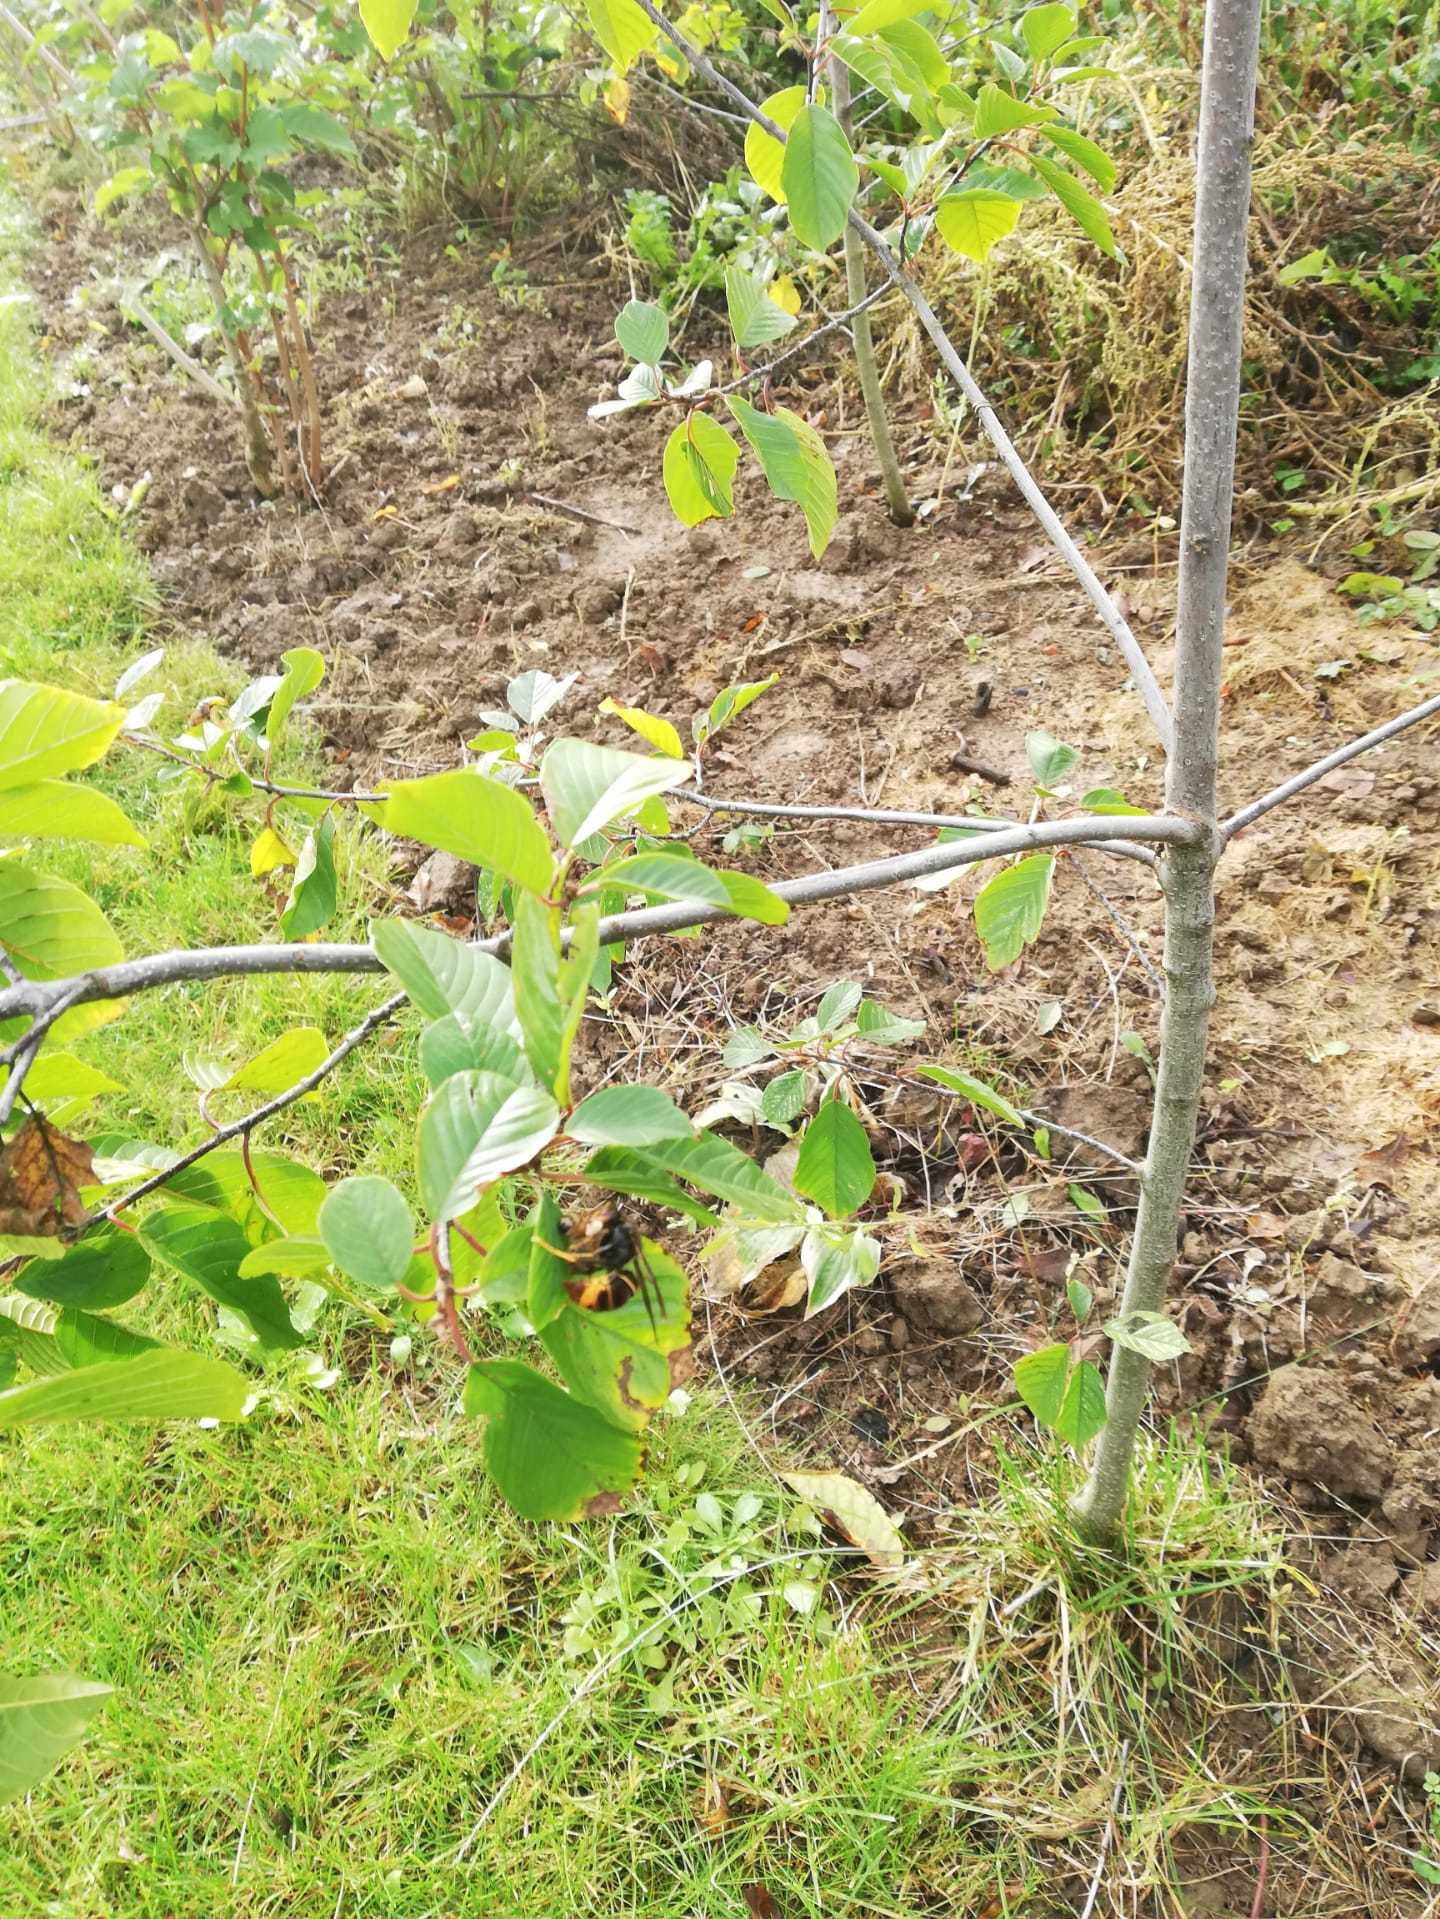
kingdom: Animalia
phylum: Arthropoda
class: Insecta
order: Hymenoptera
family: Vespidae
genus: Vespa
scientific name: Vespa velutina
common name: Asian hornet
